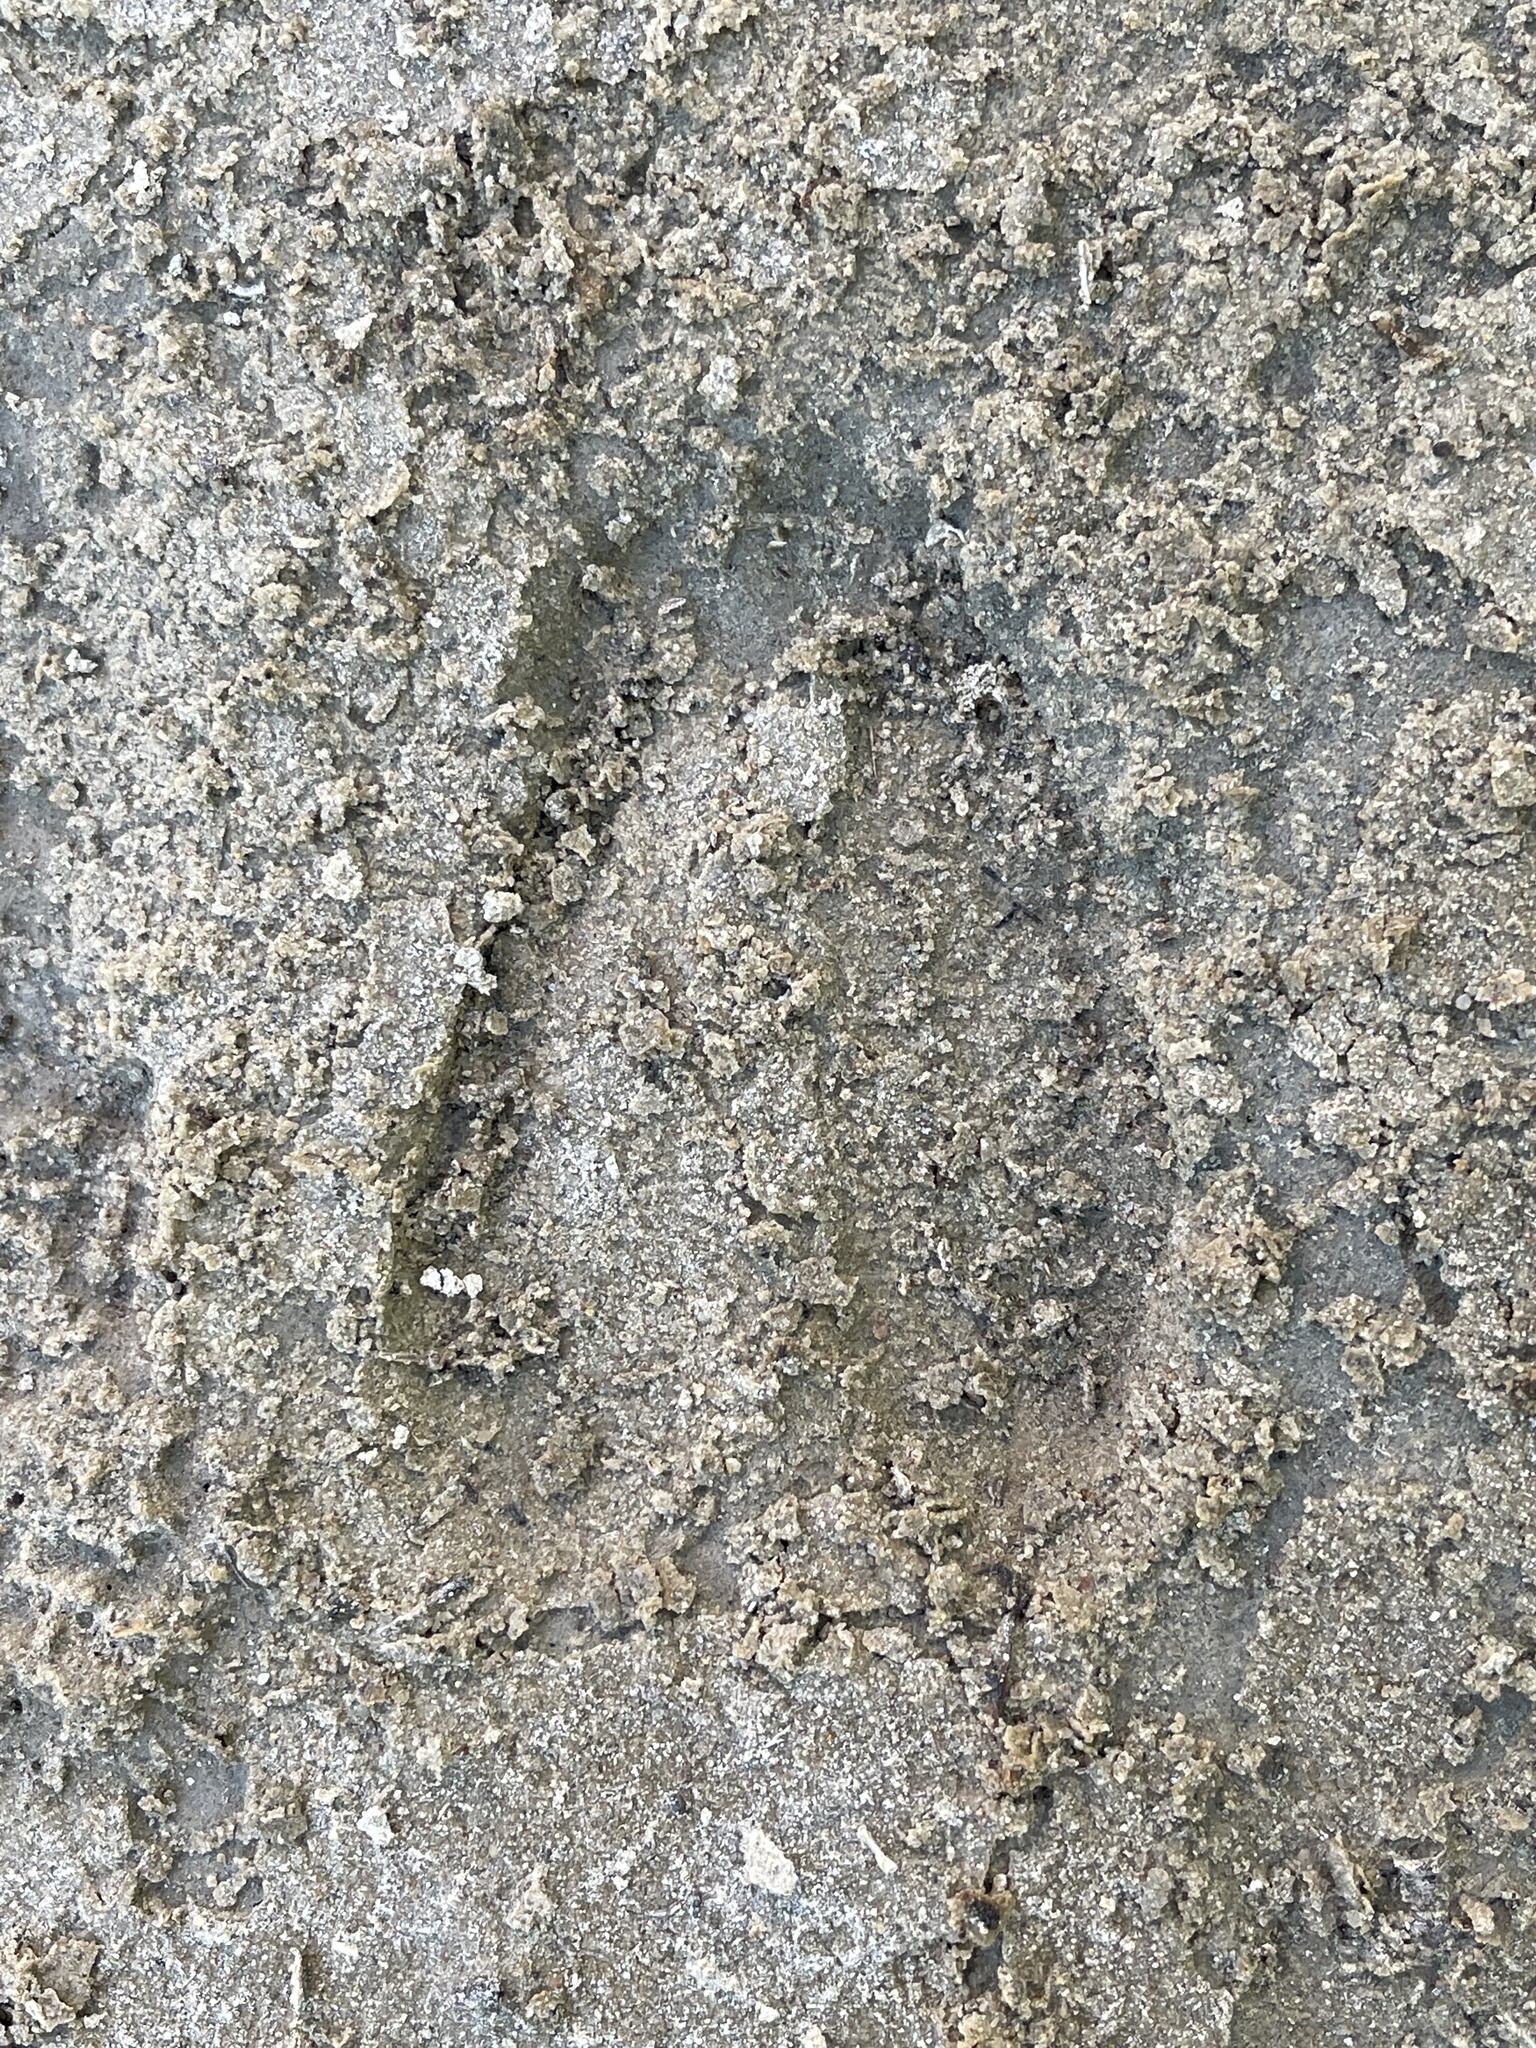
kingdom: Animalia
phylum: Chordata
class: Mammalia
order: Artiodactyla
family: Cervidae
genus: Odocoileus
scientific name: Odocoileus hemionus
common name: Mule deer
